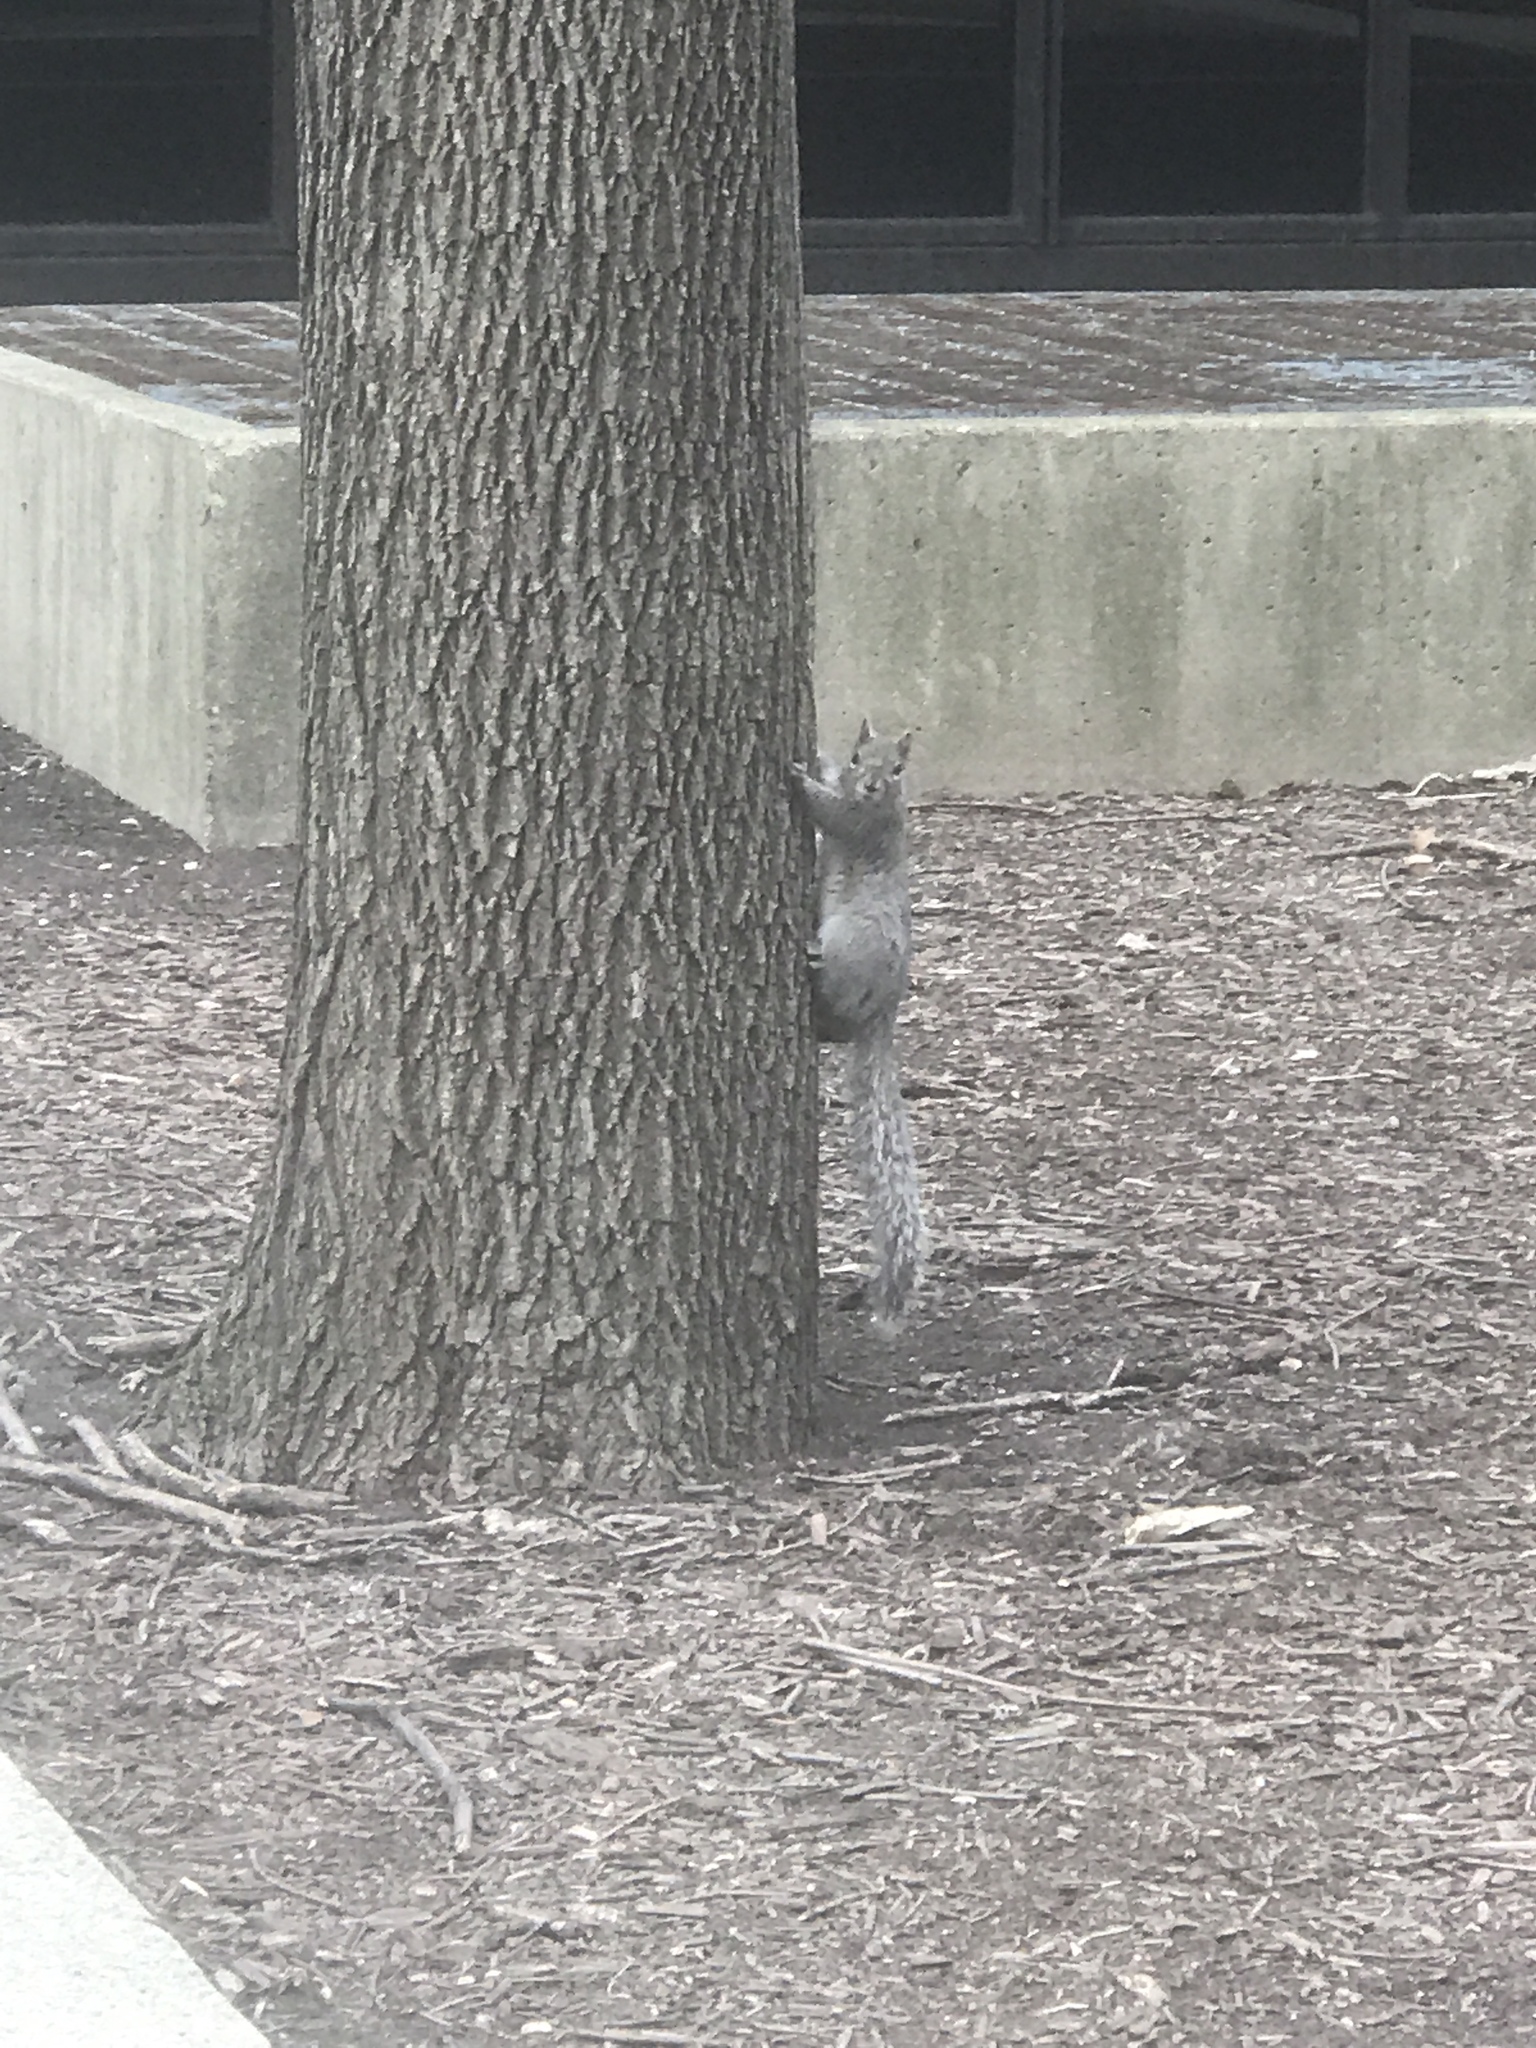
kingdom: Animalia
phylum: Chordata
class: Mammalia
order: Rodentia
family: Sciuridae
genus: Sciurus
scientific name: Sciurus carolinensis
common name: Eastern gray squirrel
